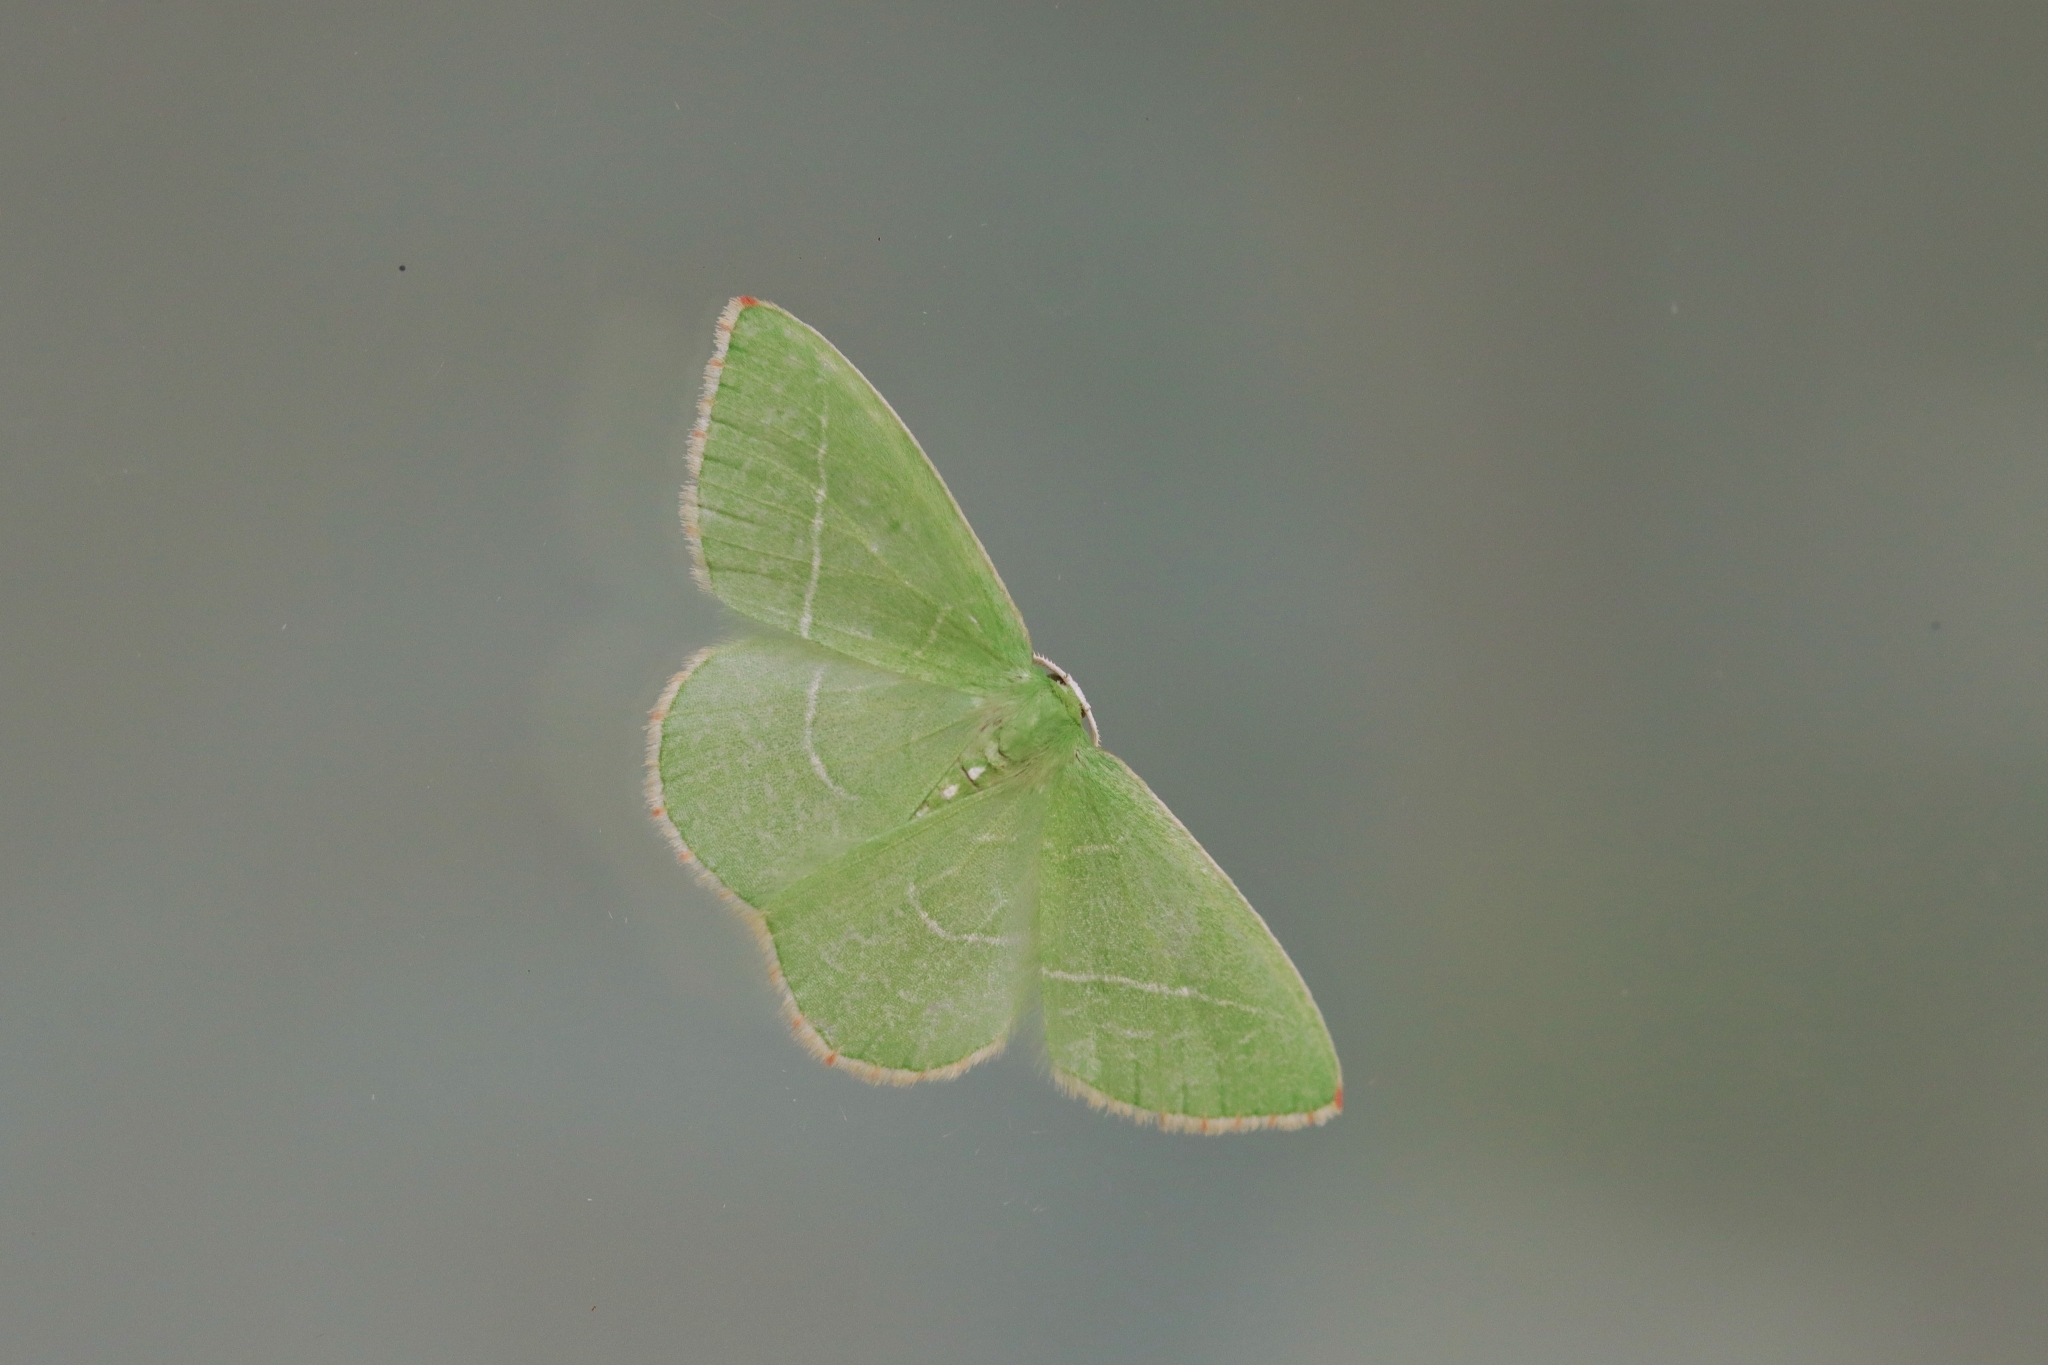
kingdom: Animalia
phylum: Arthropoda
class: Insecta
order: Lepidoptera
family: Geometridae
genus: Nemoria
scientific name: Nemoria unitaria
